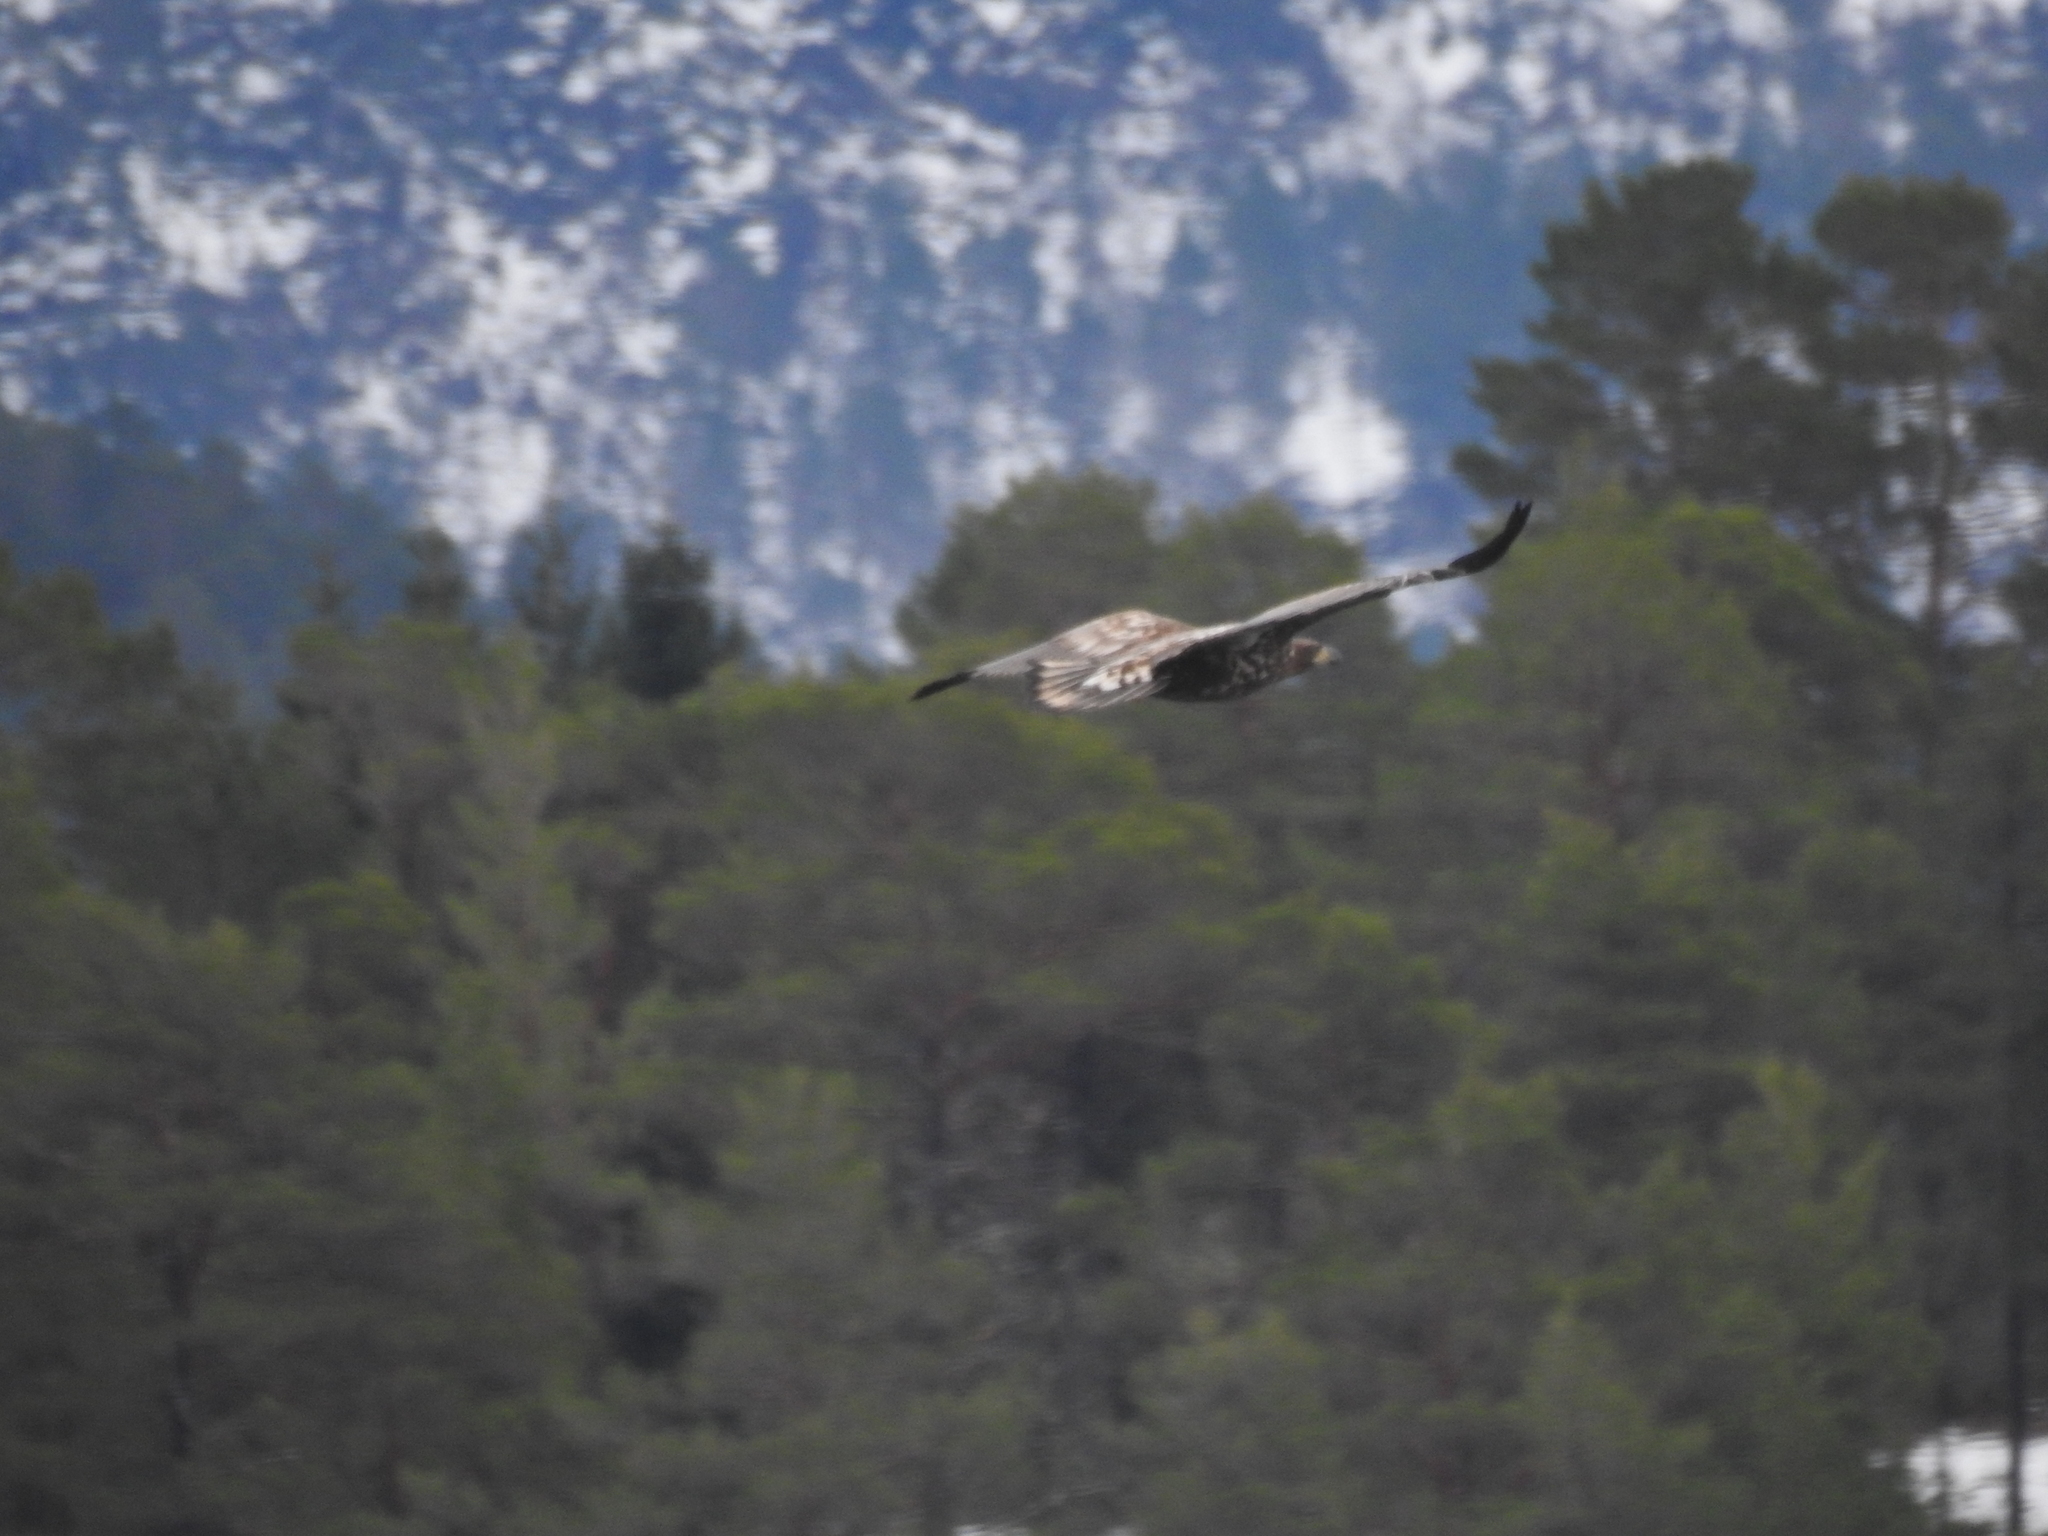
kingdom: Animalia
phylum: Chordata
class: Aves
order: Accipitriformes
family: Accipitridae
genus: Haliaeetus
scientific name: Haliaeetus albicilla
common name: White-tailed eagle
